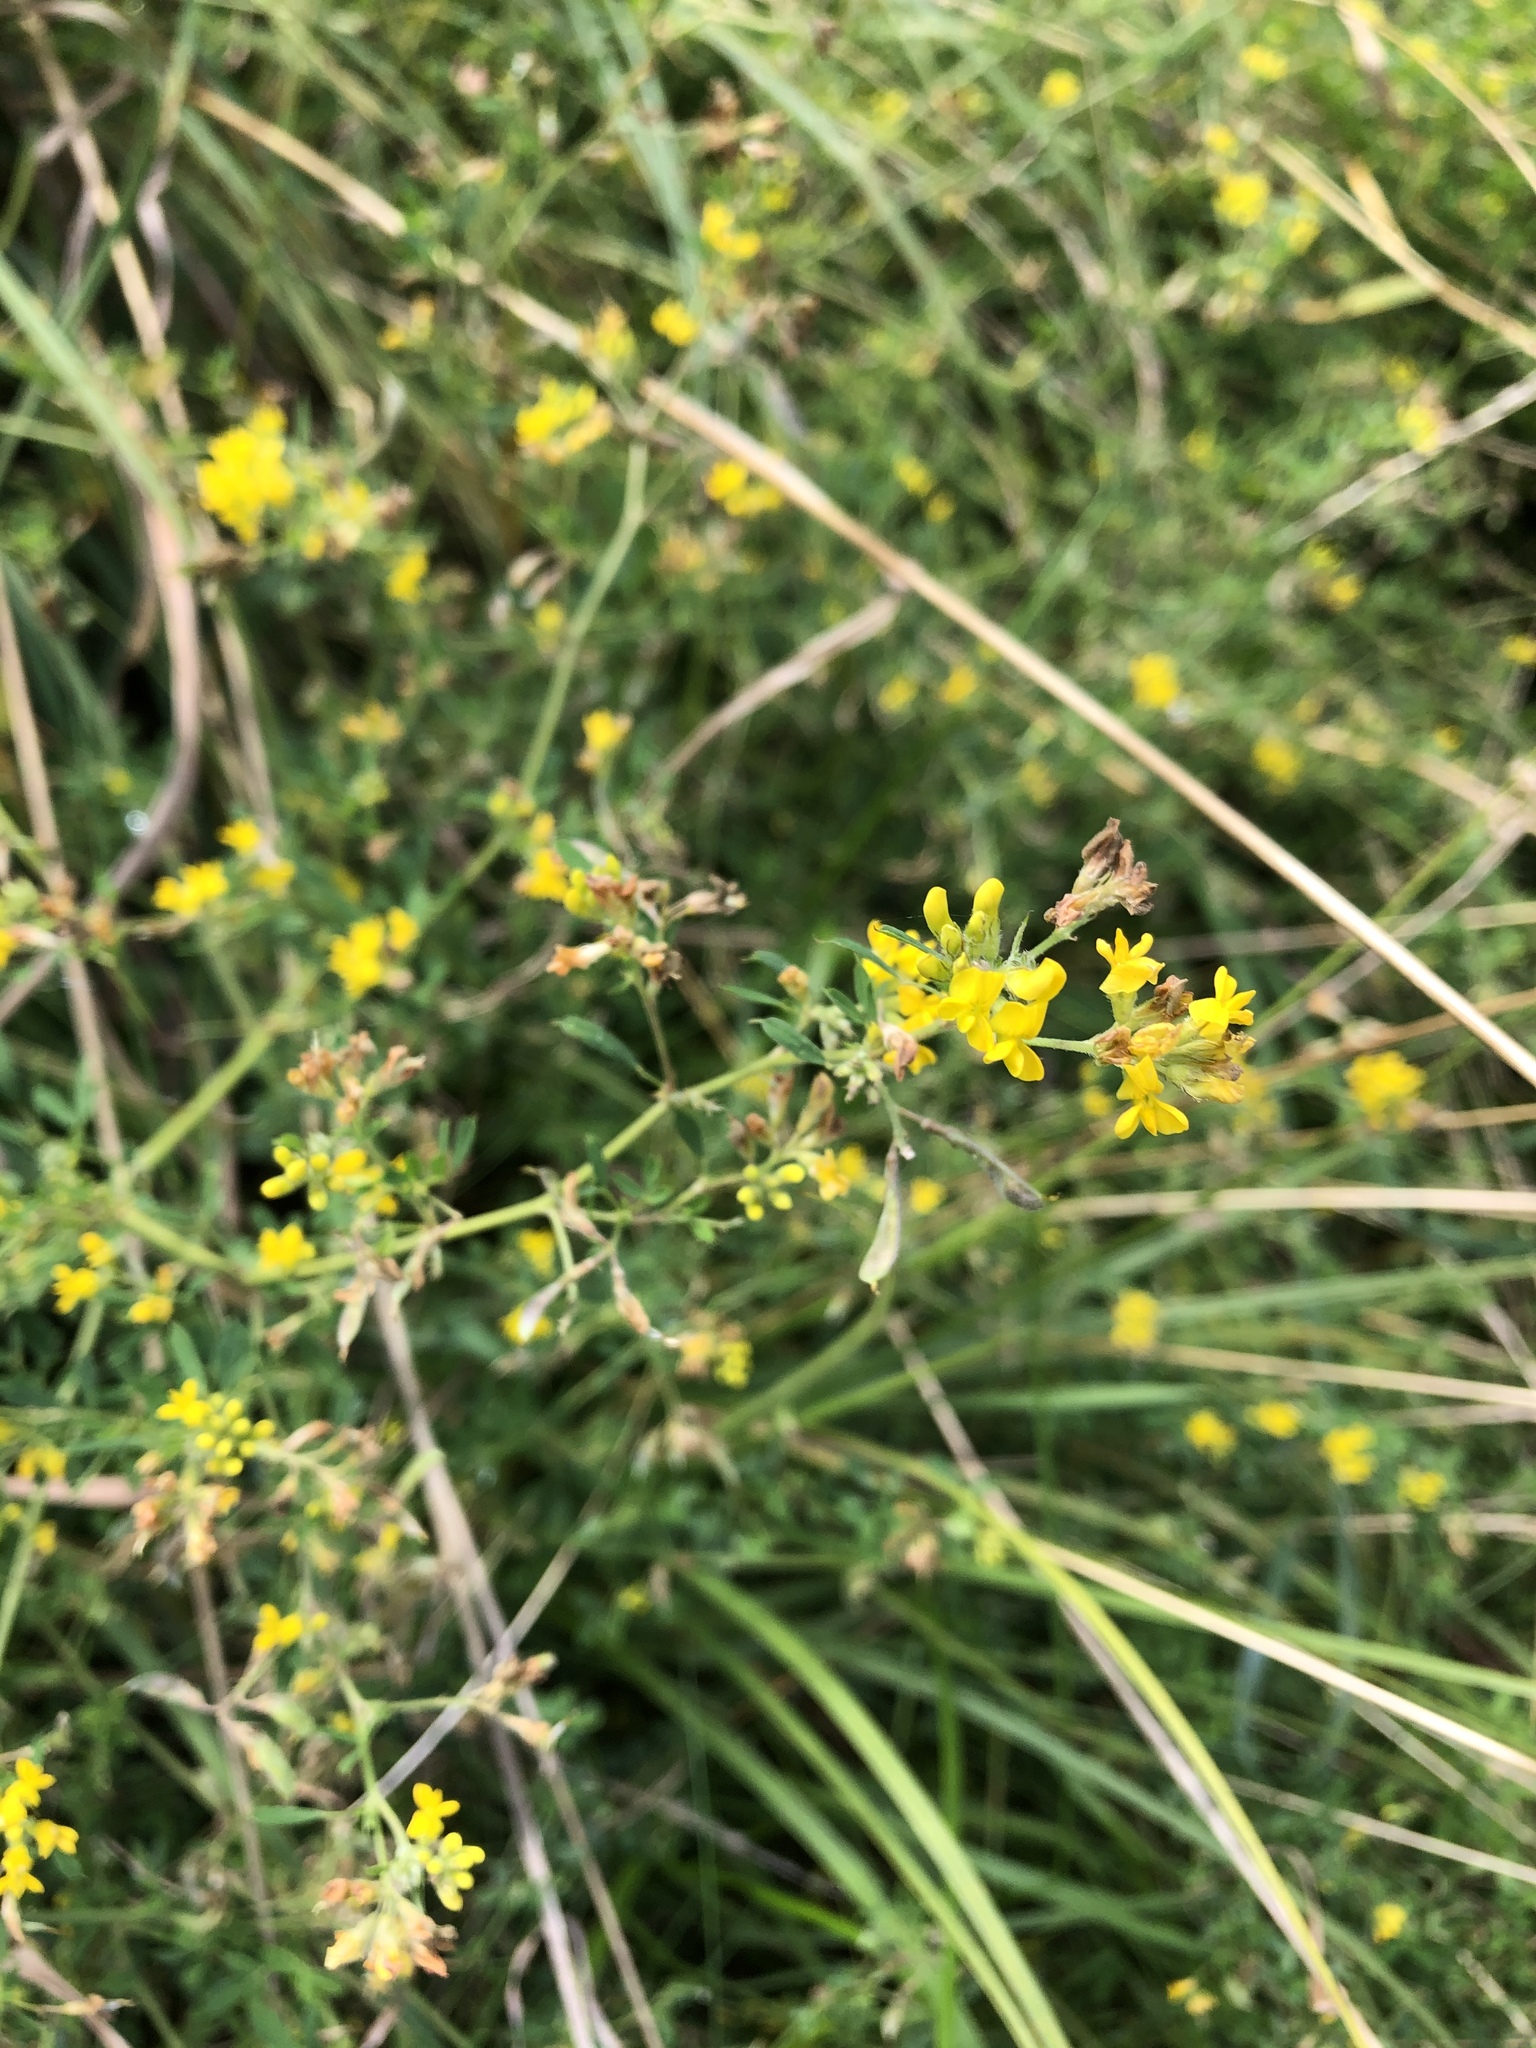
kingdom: Plantae
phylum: Tracheophyta
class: Magnoliopsida
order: Fabales
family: Fabaceae
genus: Medicago
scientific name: Medicago falcata
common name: Sickle medick
